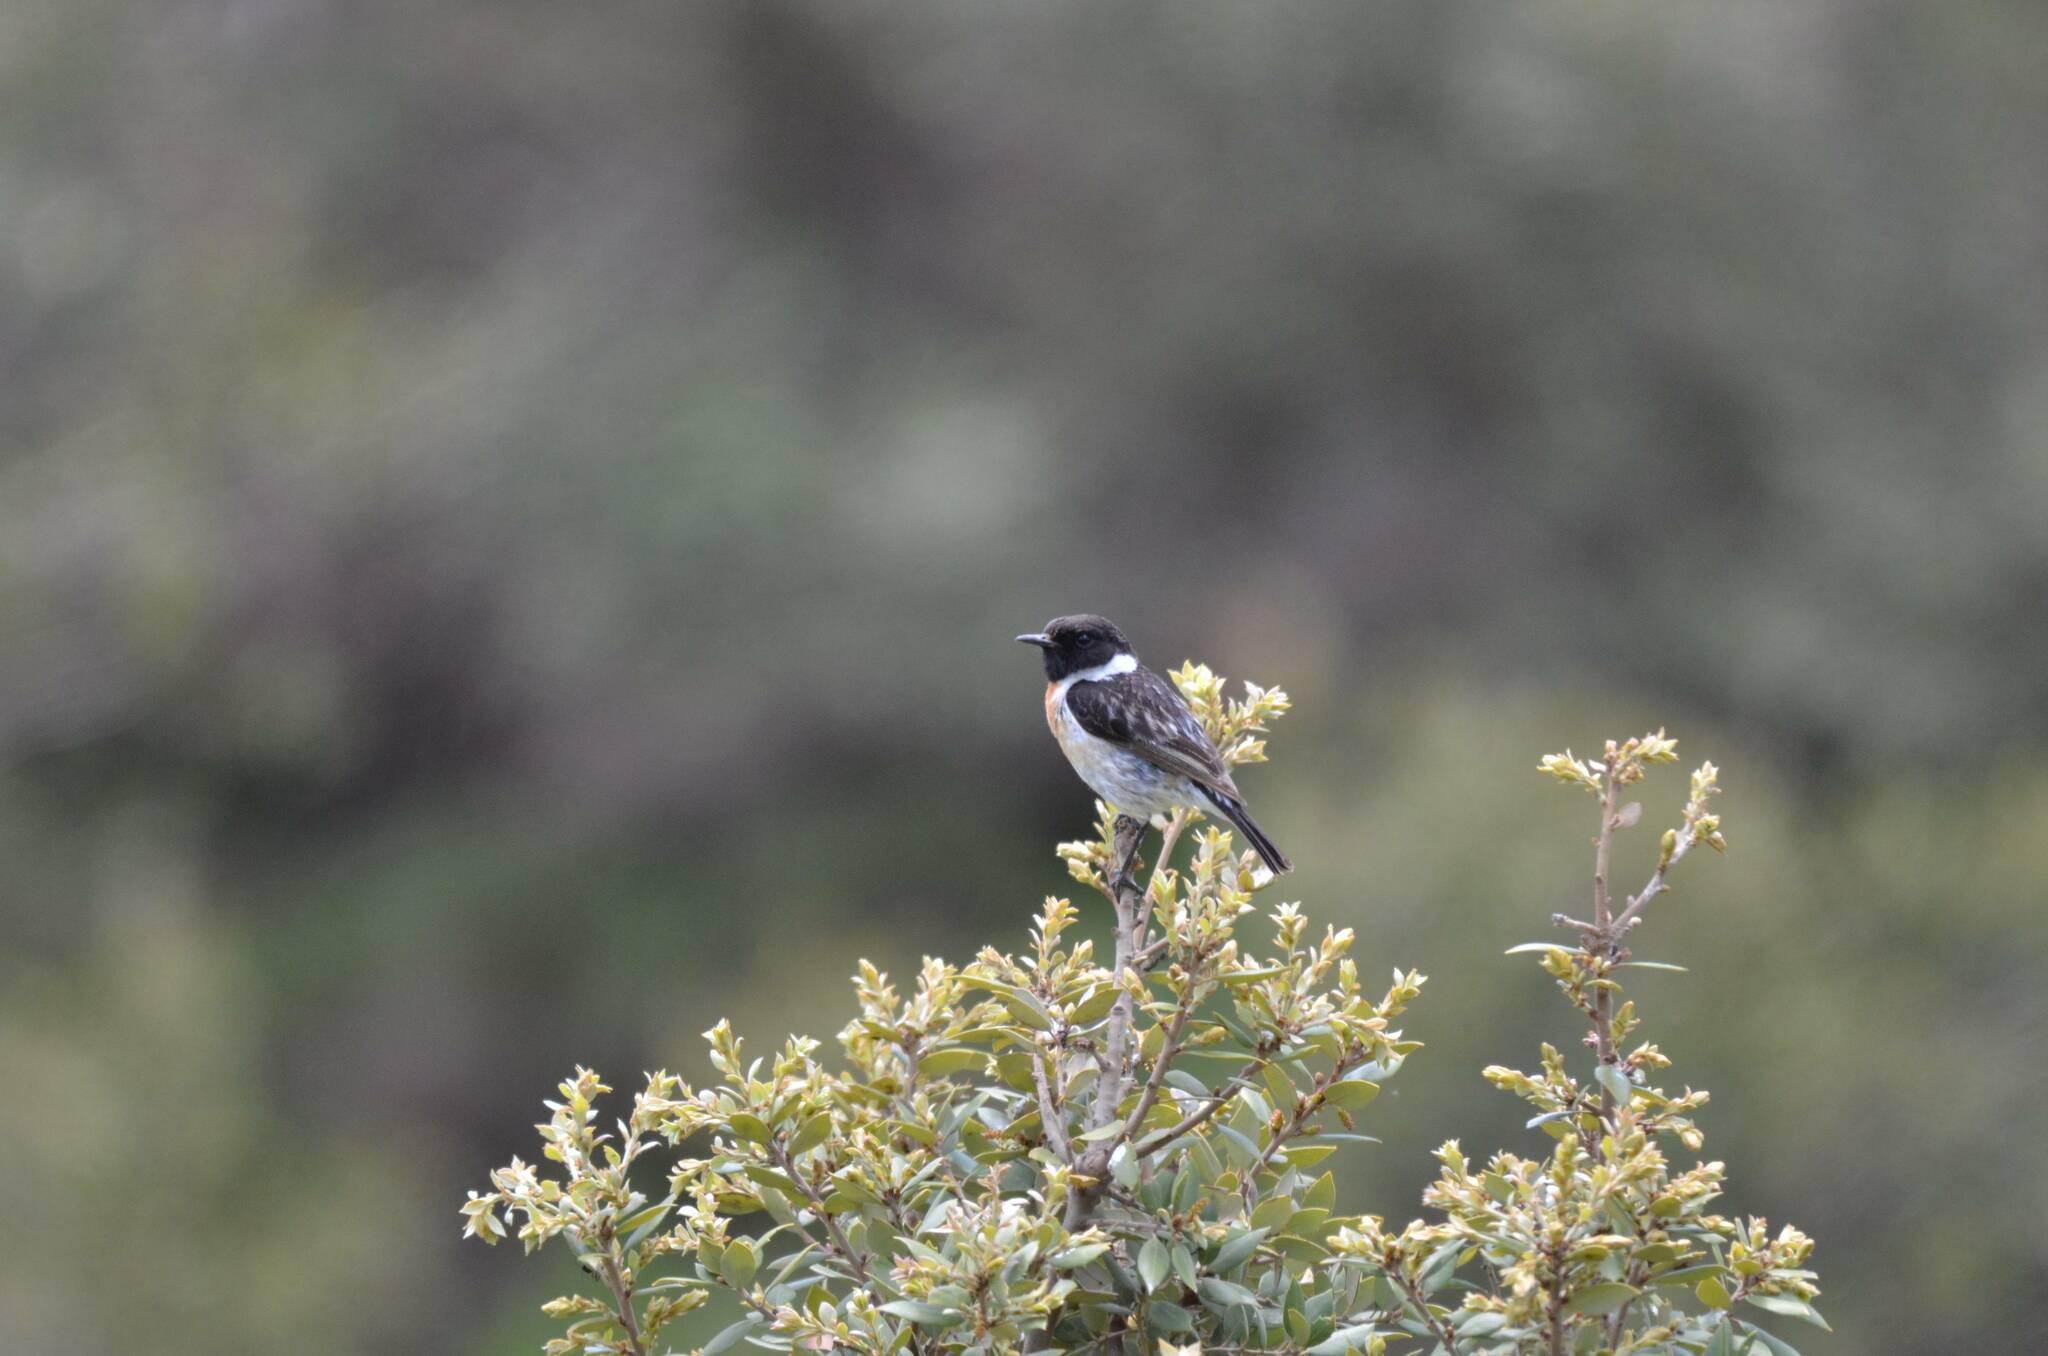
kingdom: Animalia
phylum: Chordata
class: Aves
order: Passeriformes
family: Muscicapidae
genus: Saxicola
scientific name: Saxicola rubicola
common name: European stonechat
